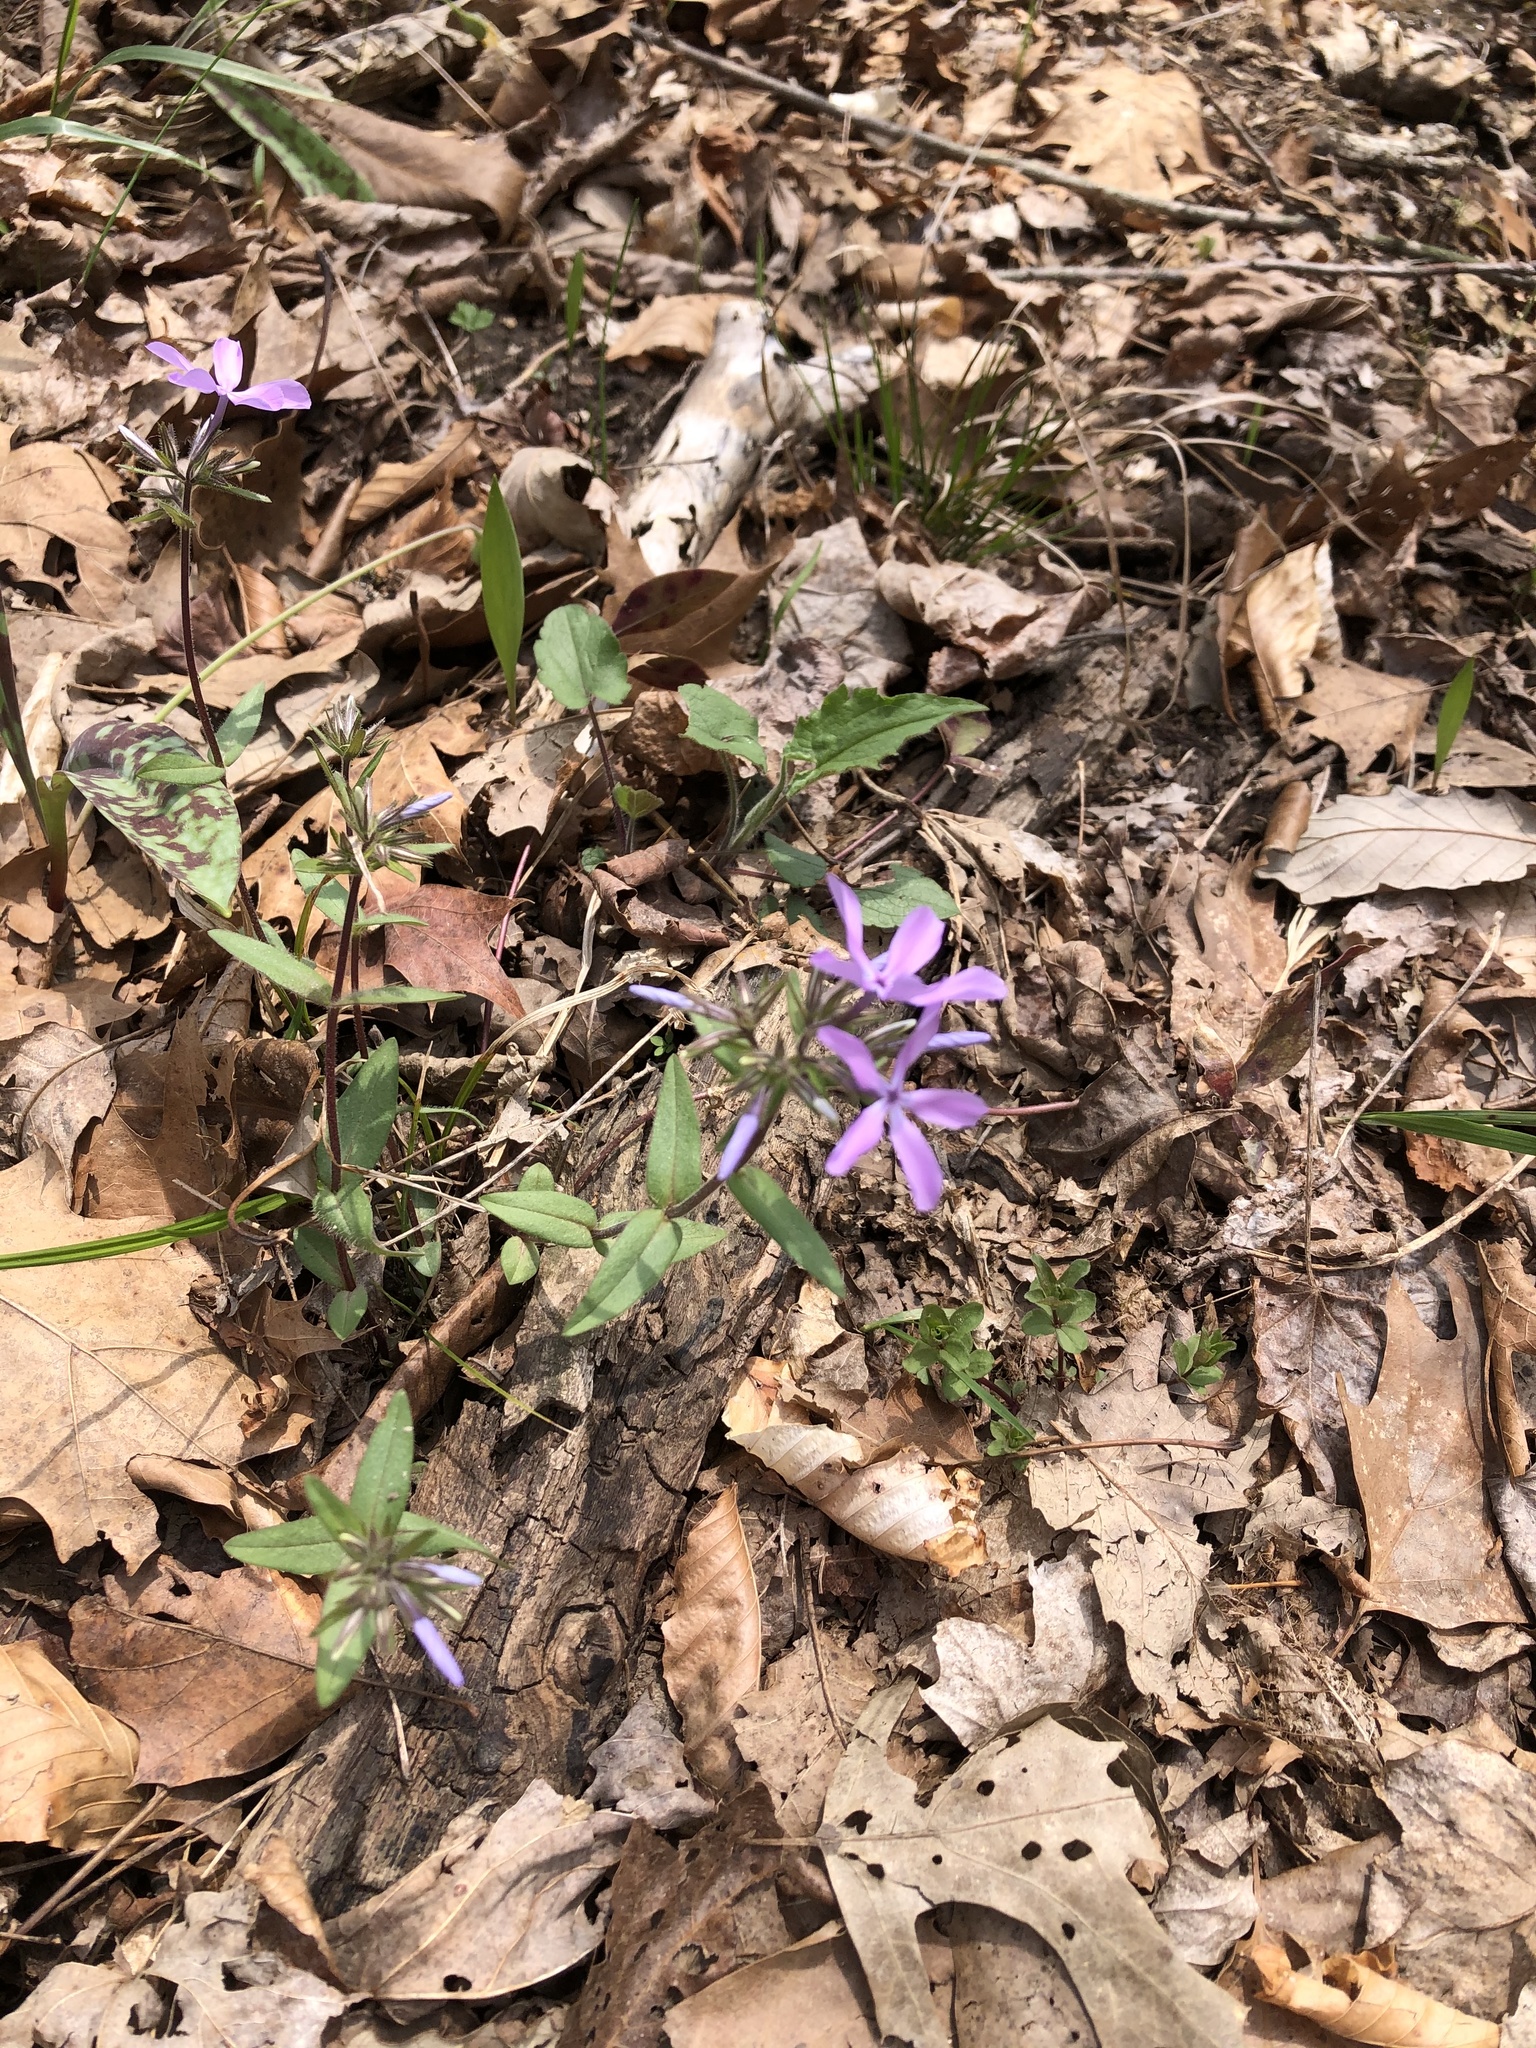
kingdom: Plantae
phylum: Tracheophyta
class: Magnoliopsida
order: Ericales
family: Polemoniaceae
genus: Phlox
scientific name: Phlox divaricata
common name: Blue phlox
